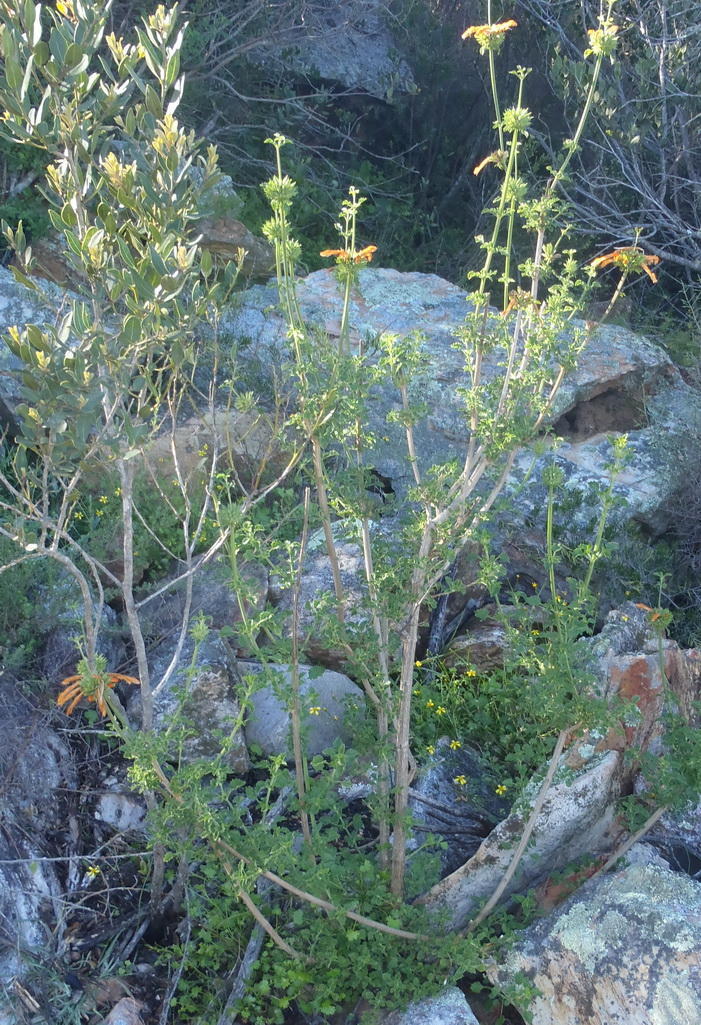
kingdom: Plantae
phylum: Tracheophyta
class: Magnoliopsida
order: Lamiales
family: Lamiaceae
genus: Leonotis
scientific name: Leonotis ocymifolia
